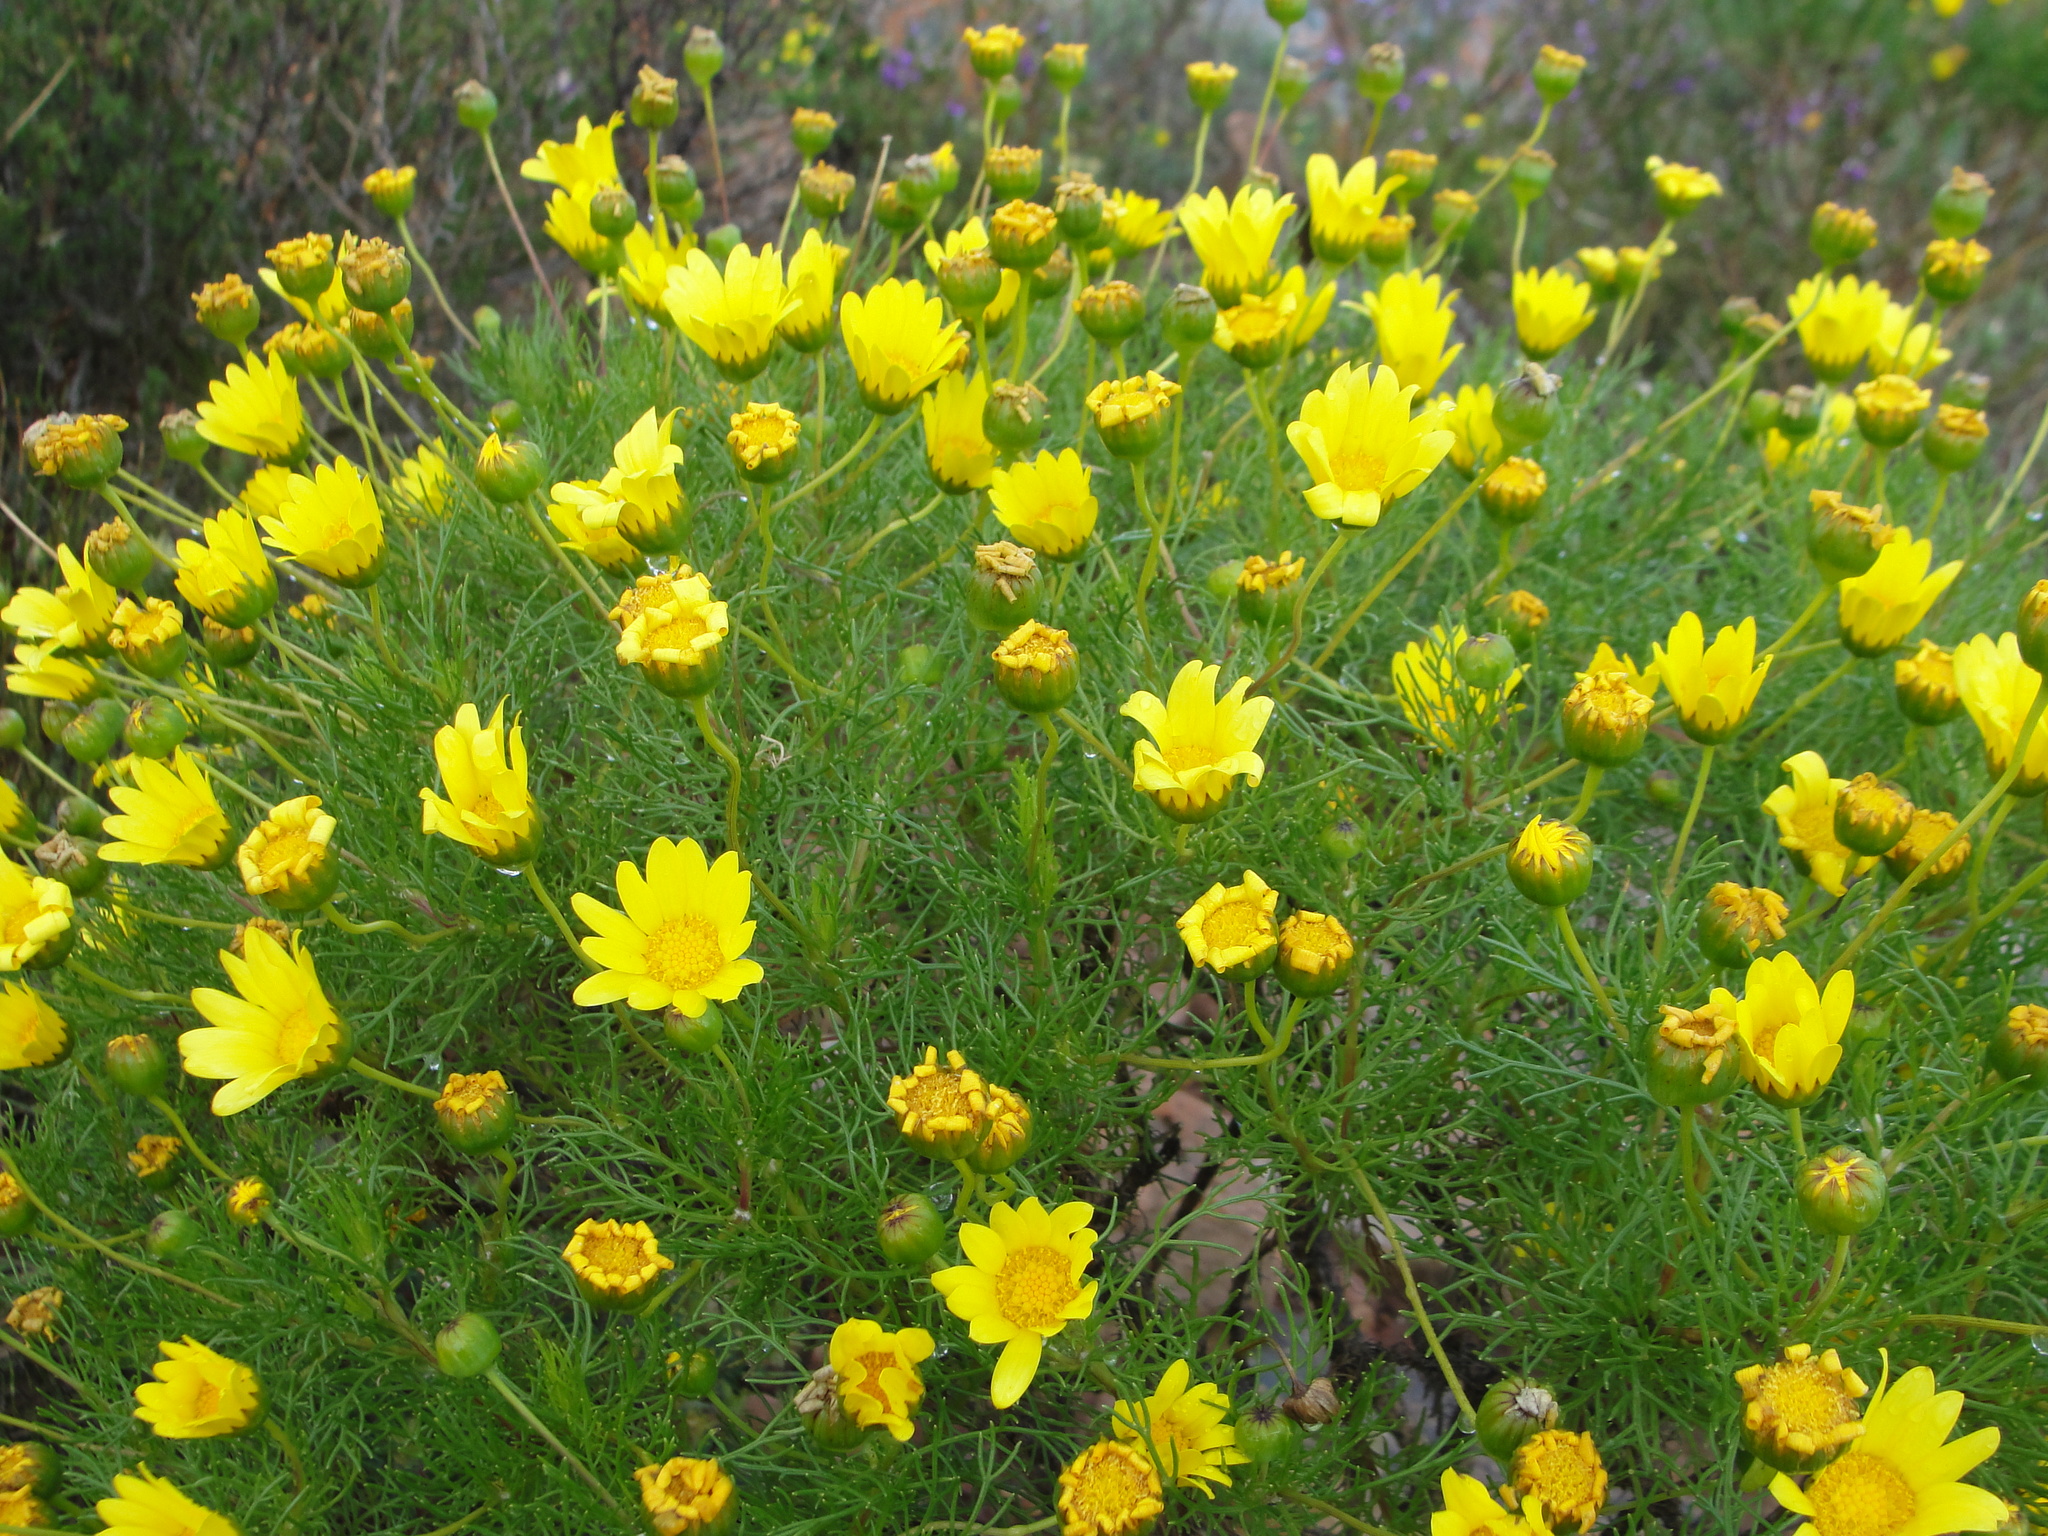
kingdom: Plantae
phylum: Tracheophyta
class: Magnoliopsida
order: Asterales
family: Asteraceae
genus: Euryops
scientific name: Euryops abrotanifolius
